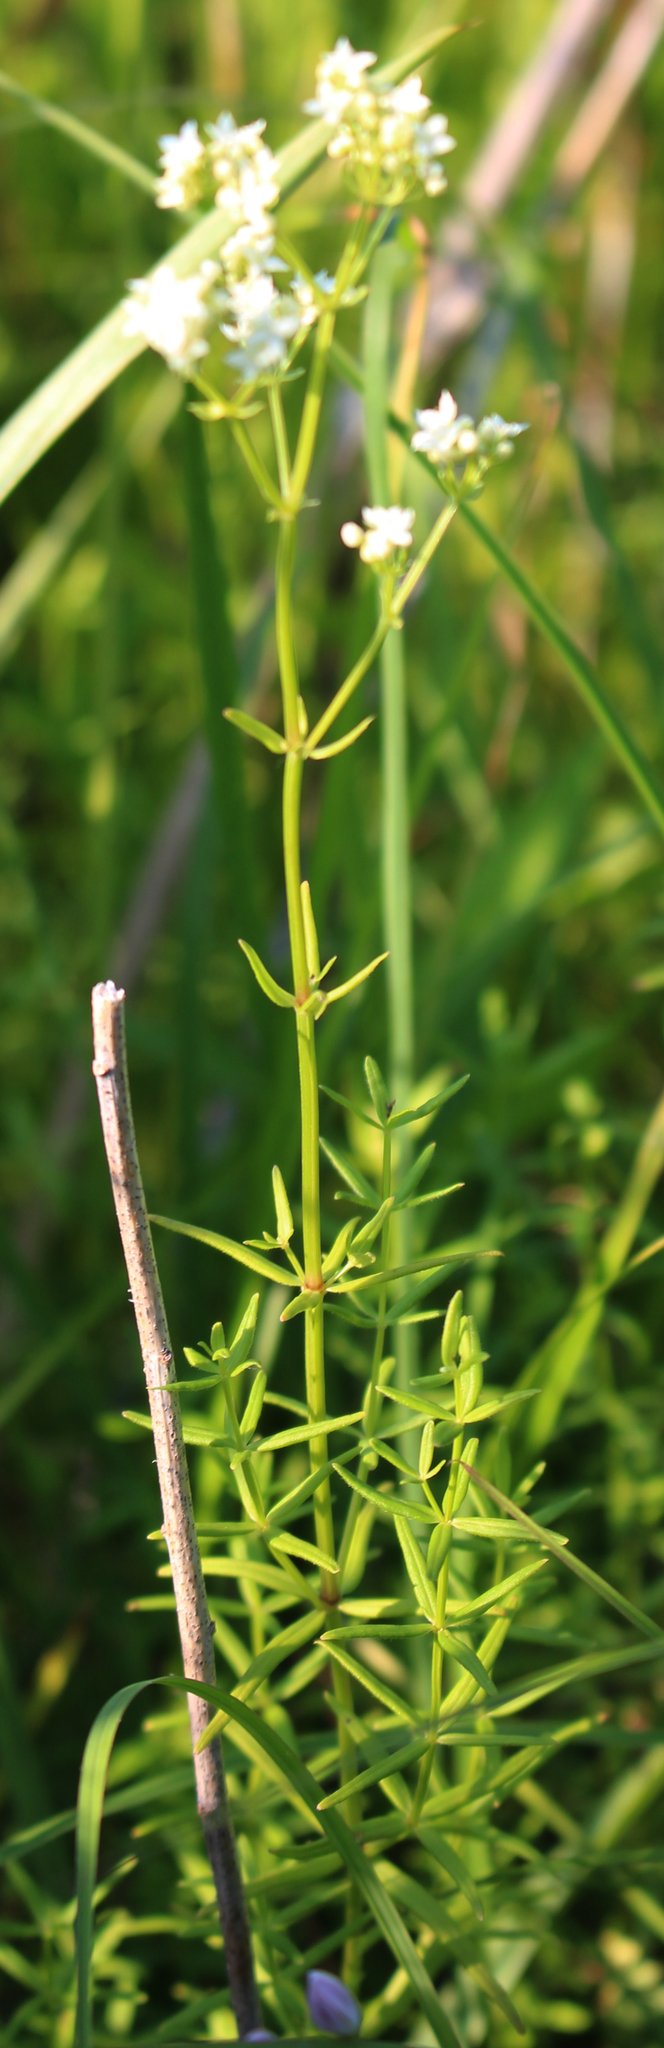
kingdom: Plantae
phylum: Tracheophyta
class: Magnoliopsida
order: Gentianales
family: Rubiaceae
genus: Galium
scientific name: Galium boreale
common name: Northern bedstraw
